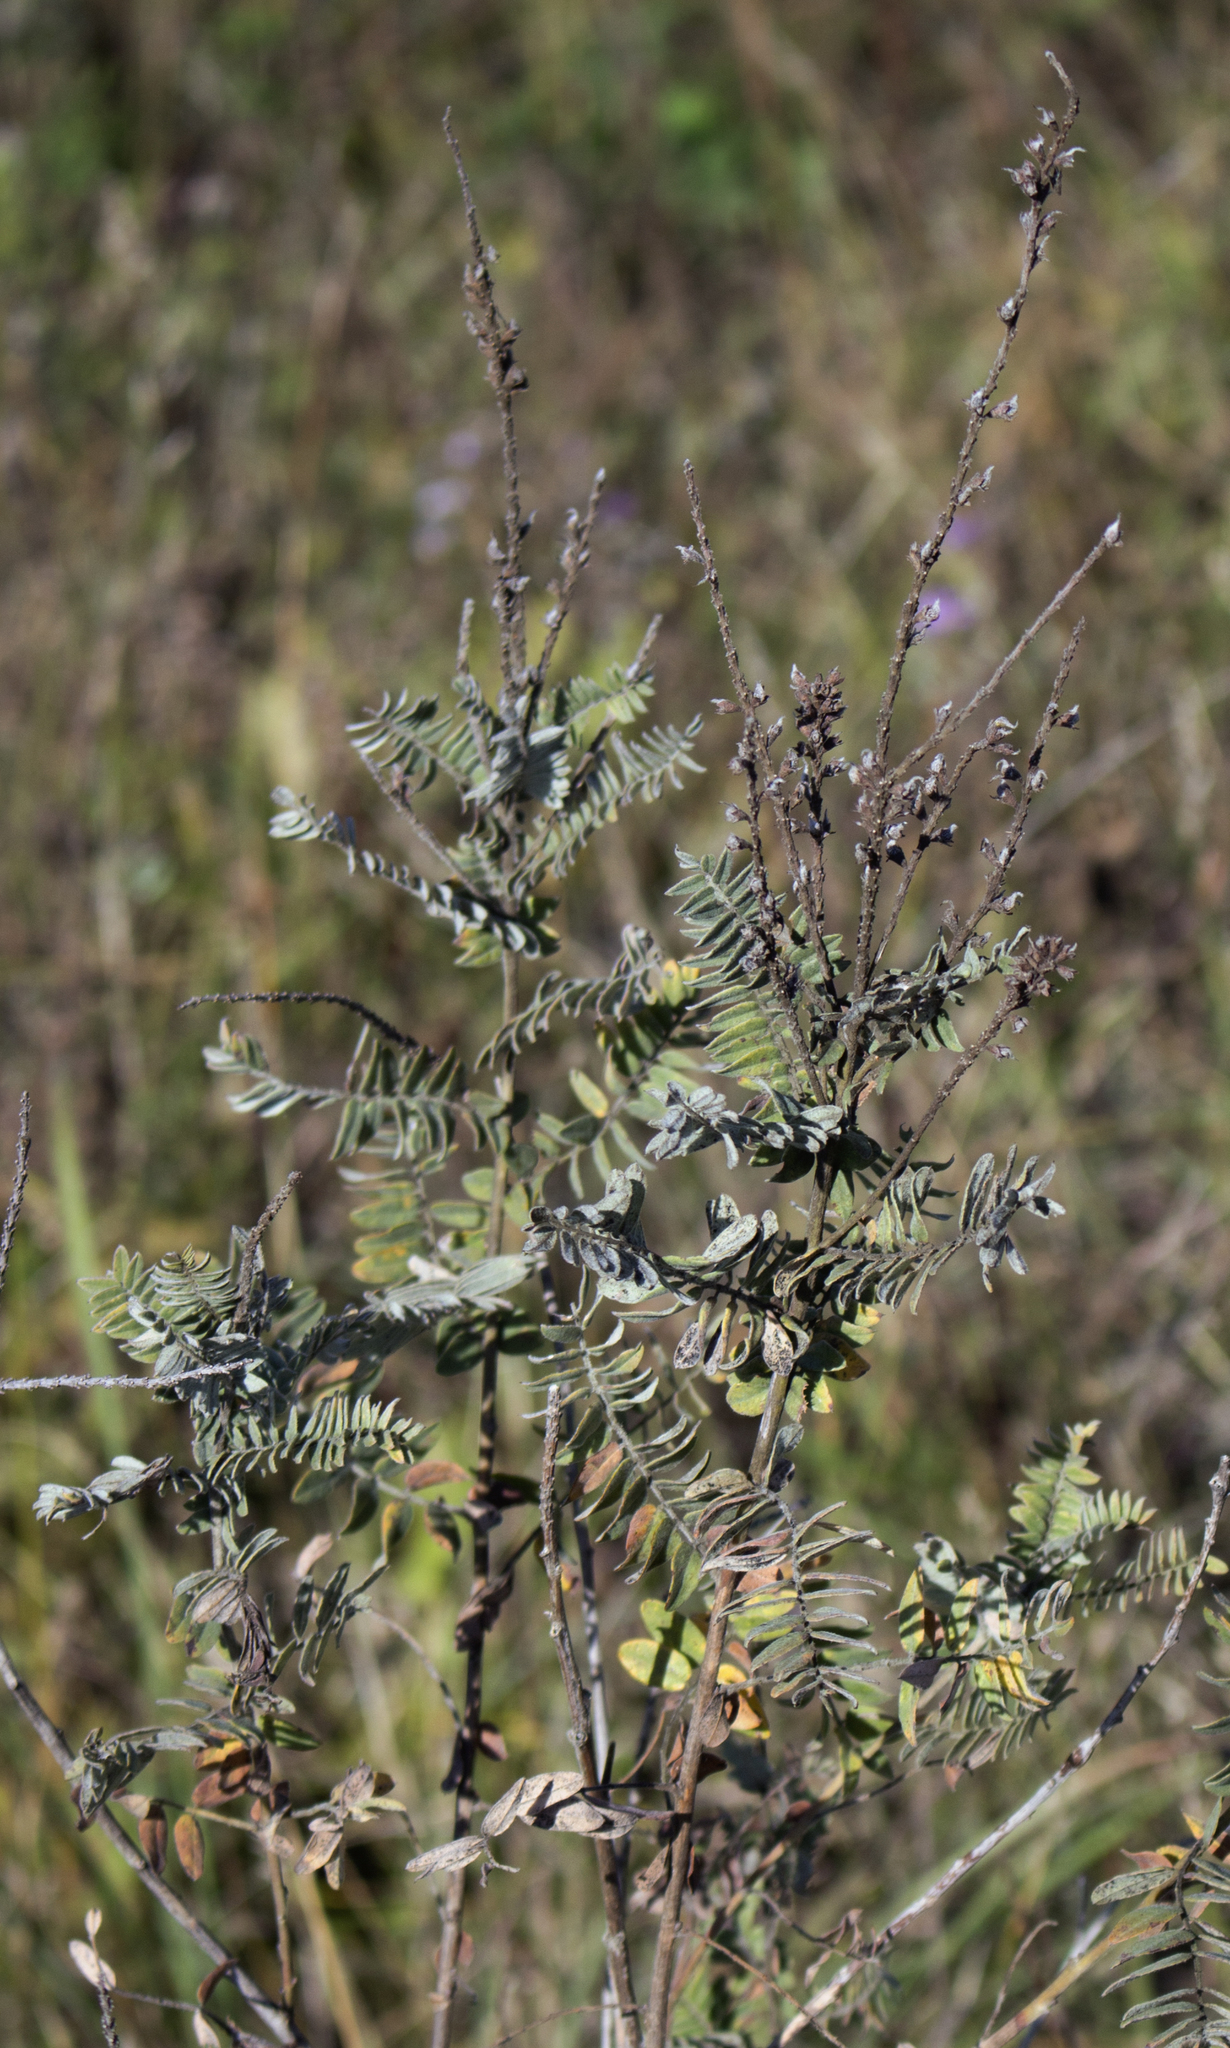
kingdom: Plantae
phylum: Tracheophyta
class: Magnoliopsida
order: Fabales
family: Fabaceae
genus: Amorpha
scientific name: Amorpha canescens
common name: Leadplant
